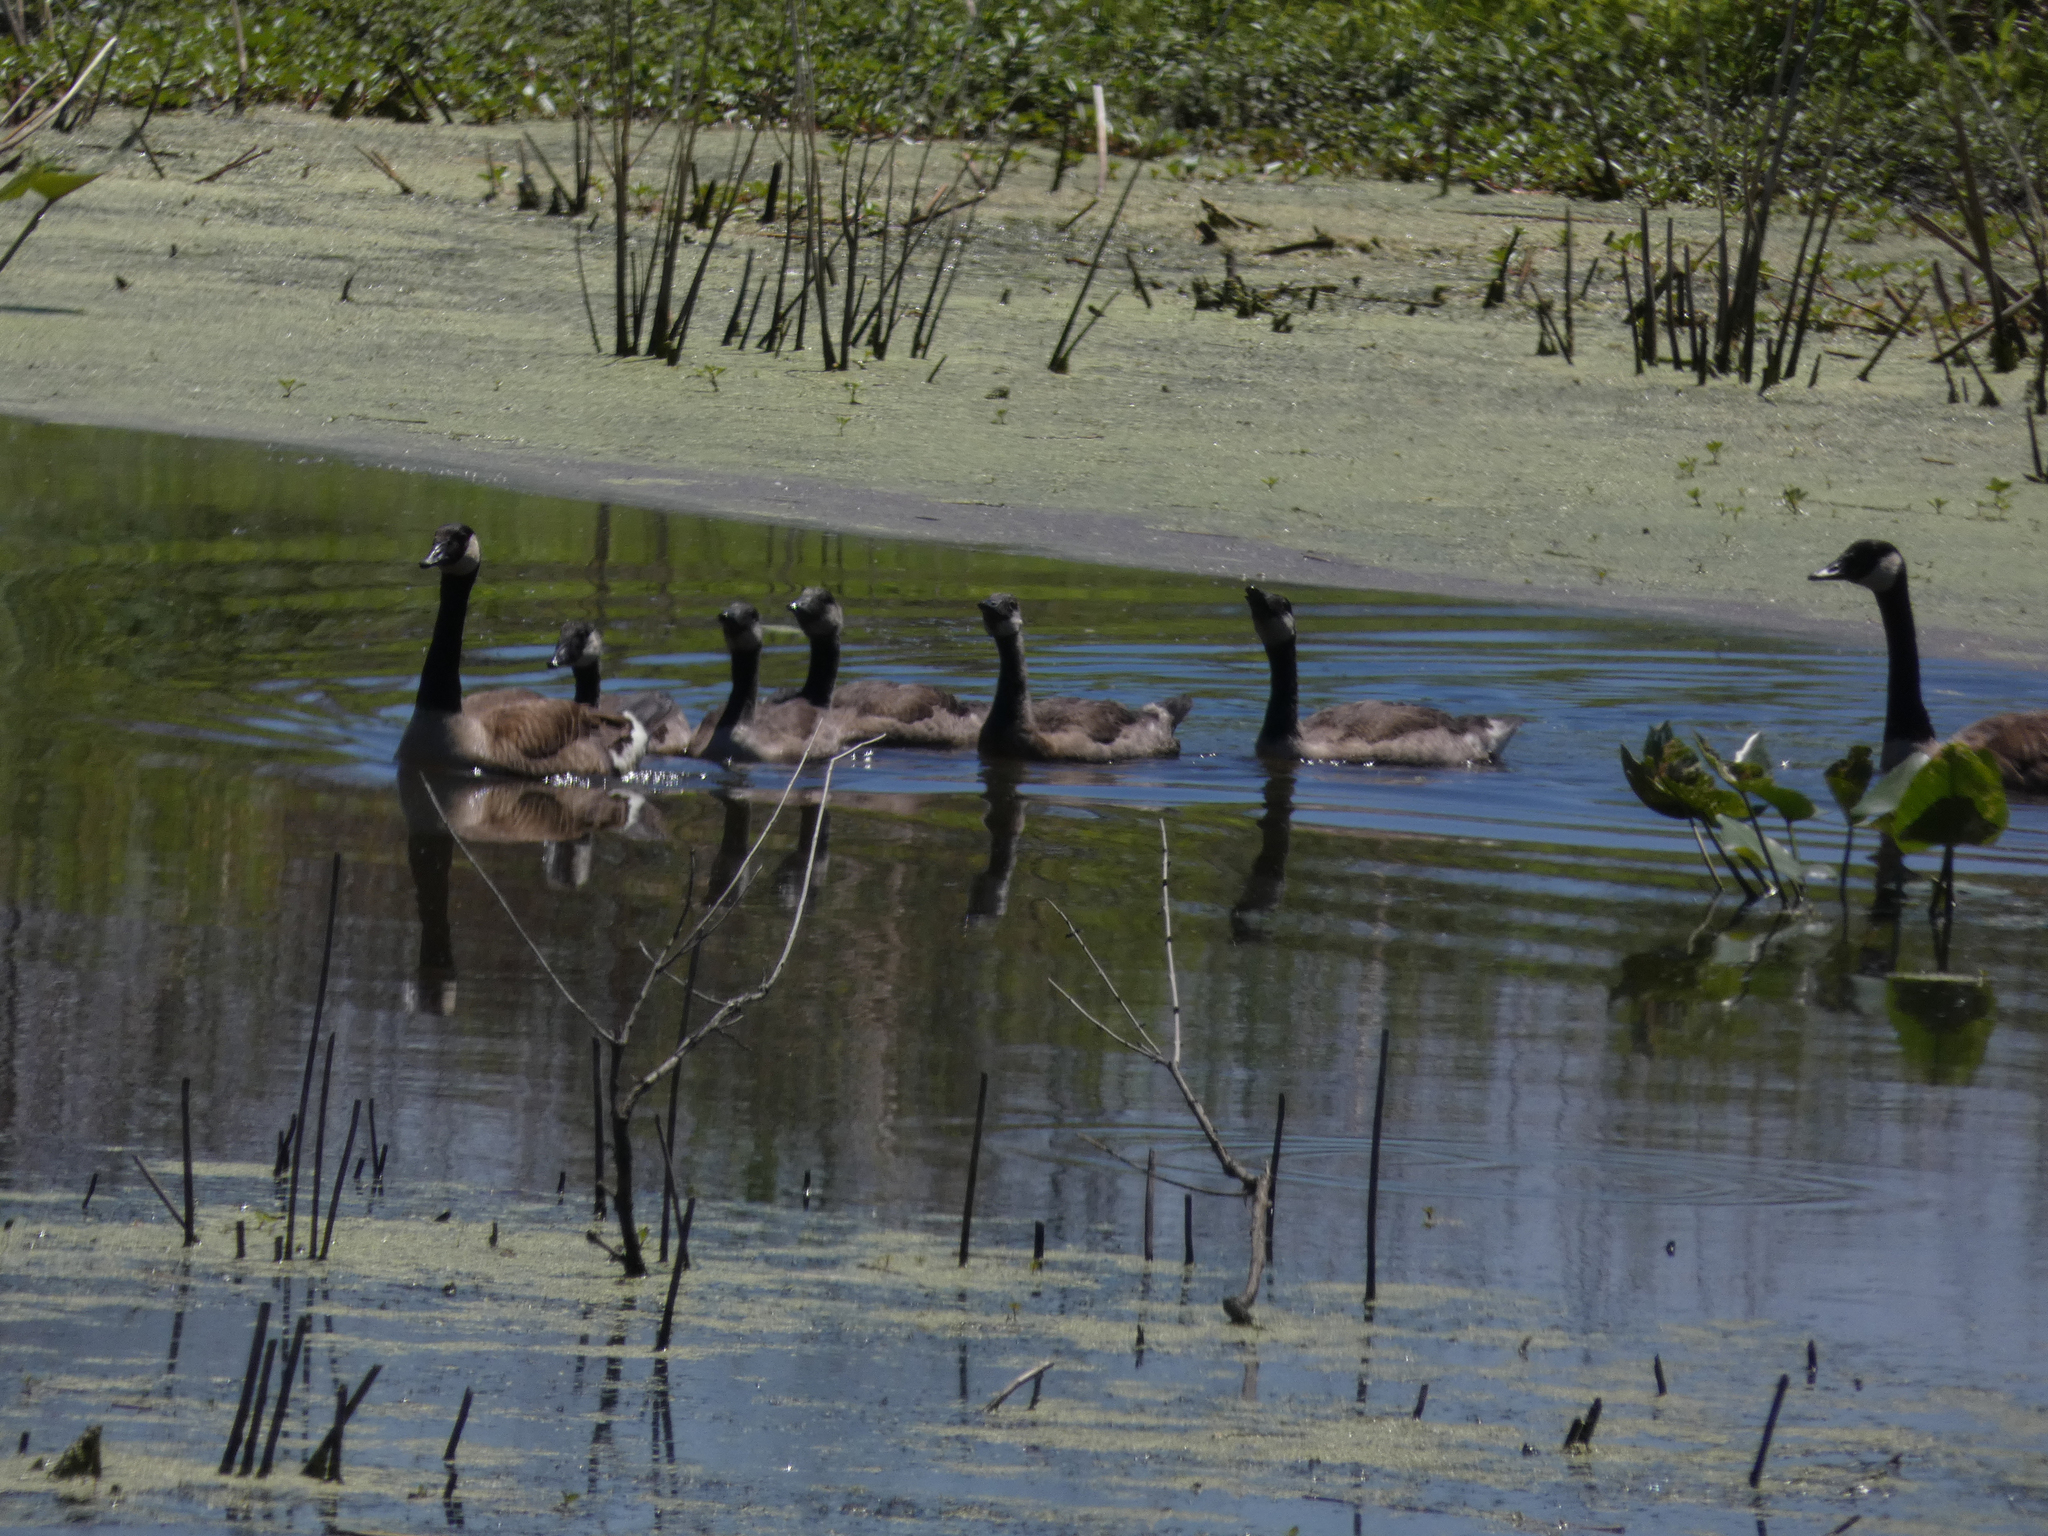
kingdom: Animalia
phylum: Chordata
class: Aves
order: Anseriformes
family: Anatidae
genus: Branta
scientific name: Branta canadensis
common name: Canada goose
